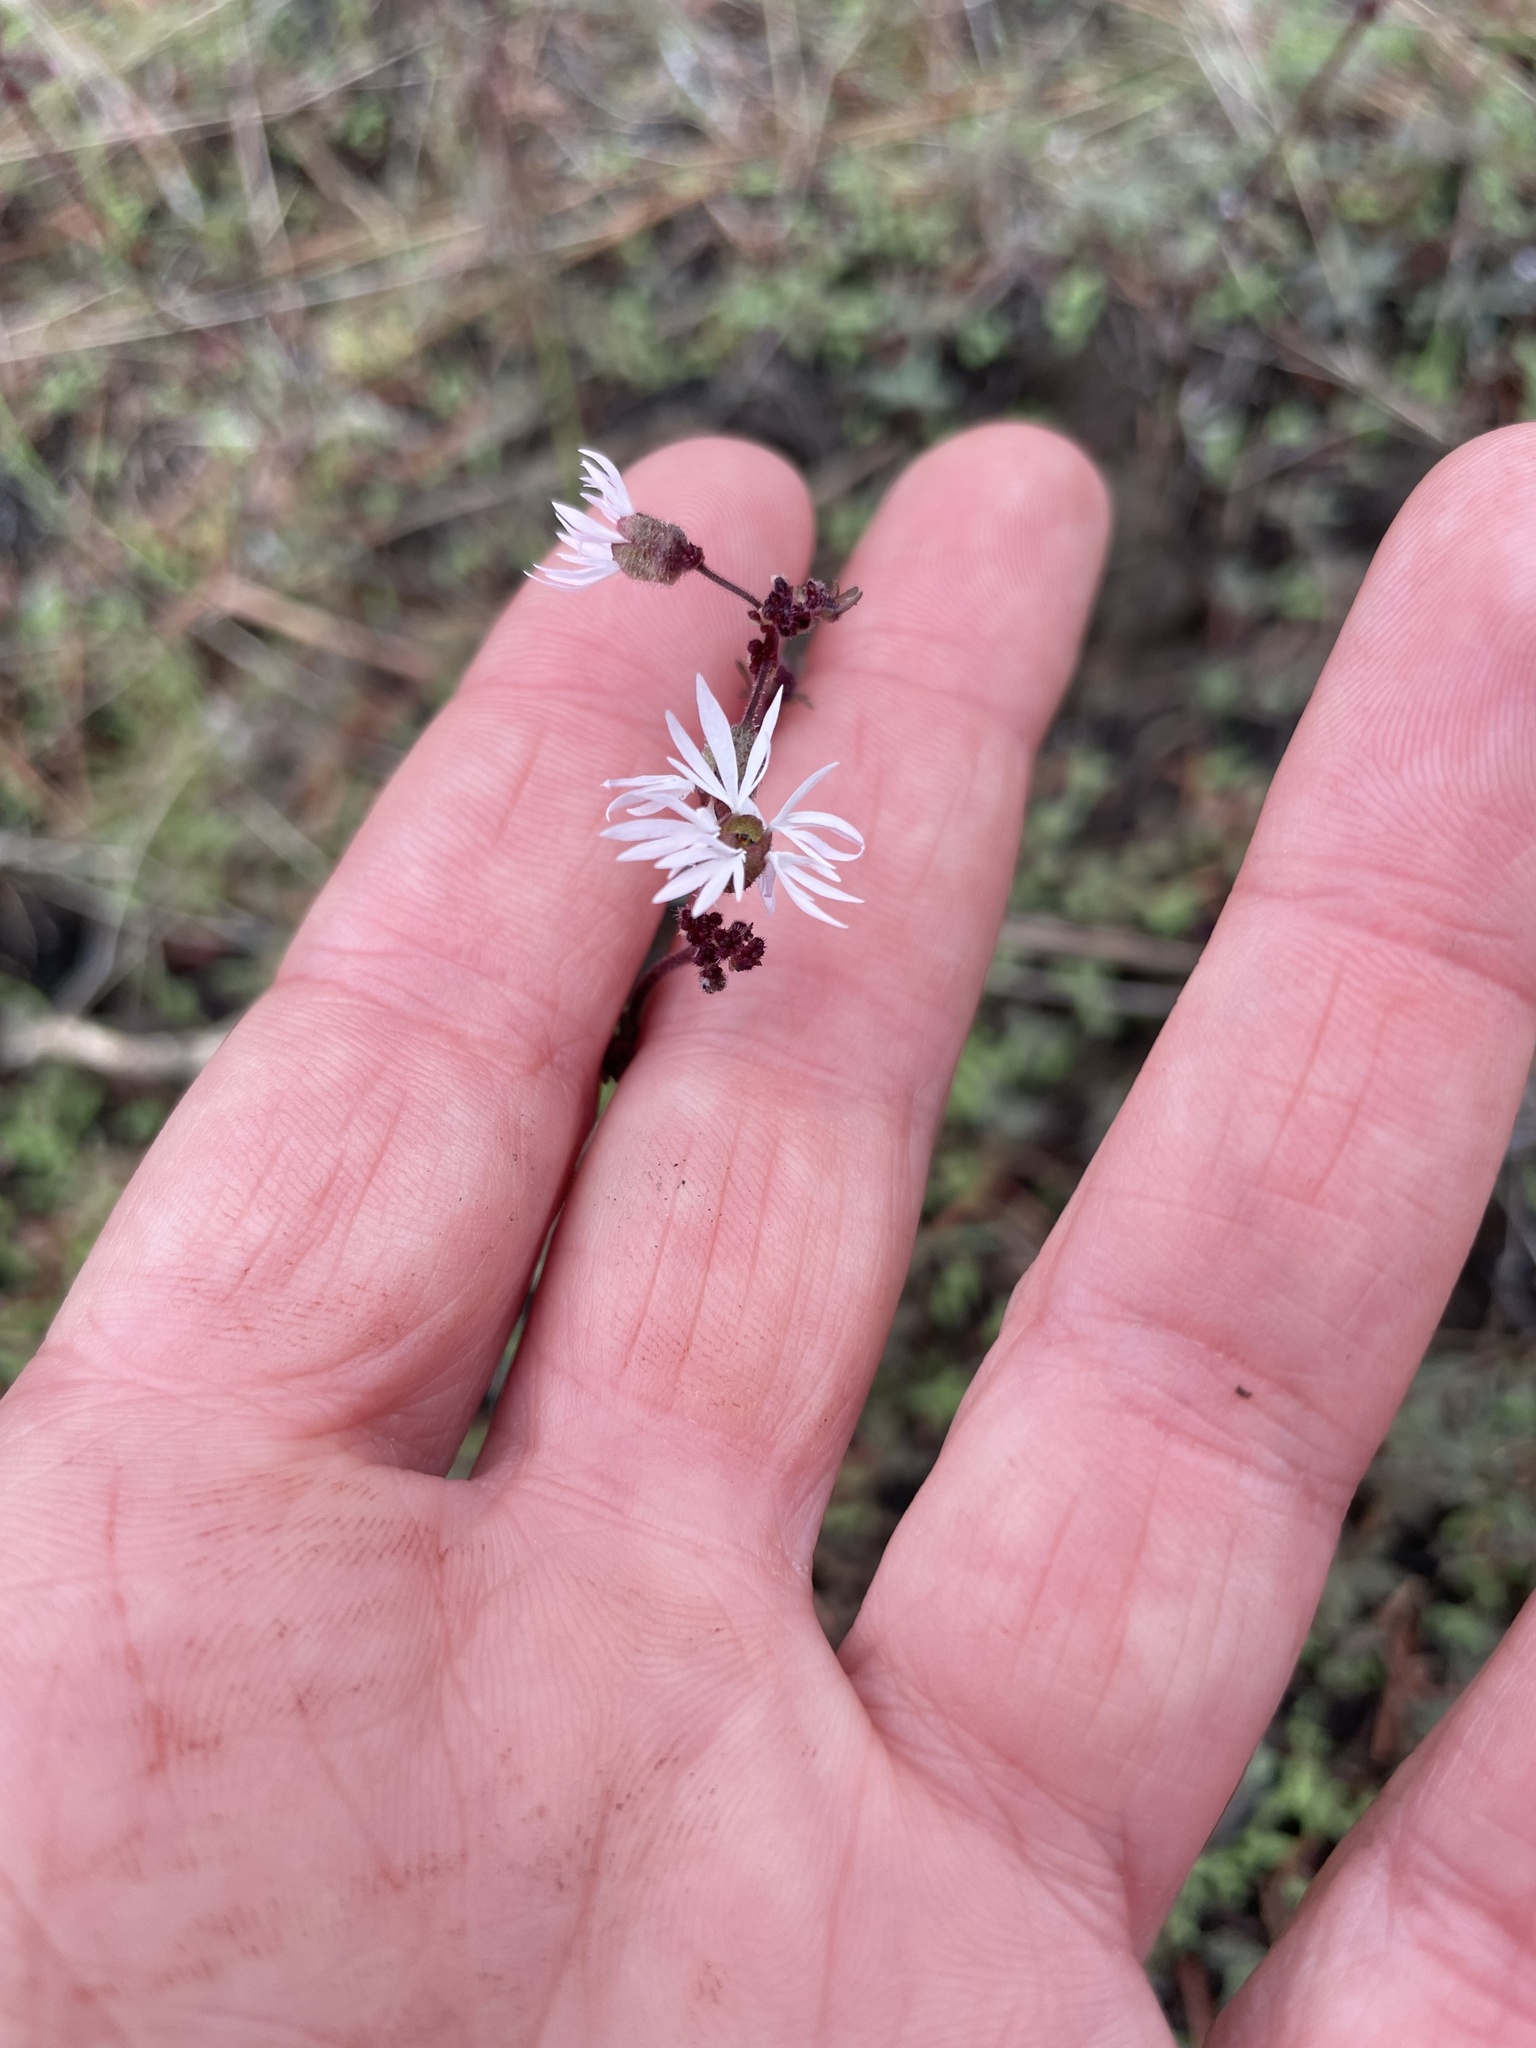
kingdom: Plantae
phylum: Tracheophyta
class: Magnoliopsida
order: Saxifragales
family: Saxifragaceae
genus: Lithophragma
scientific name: Lithophragma glabrum
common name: Bulbous prairie-star
